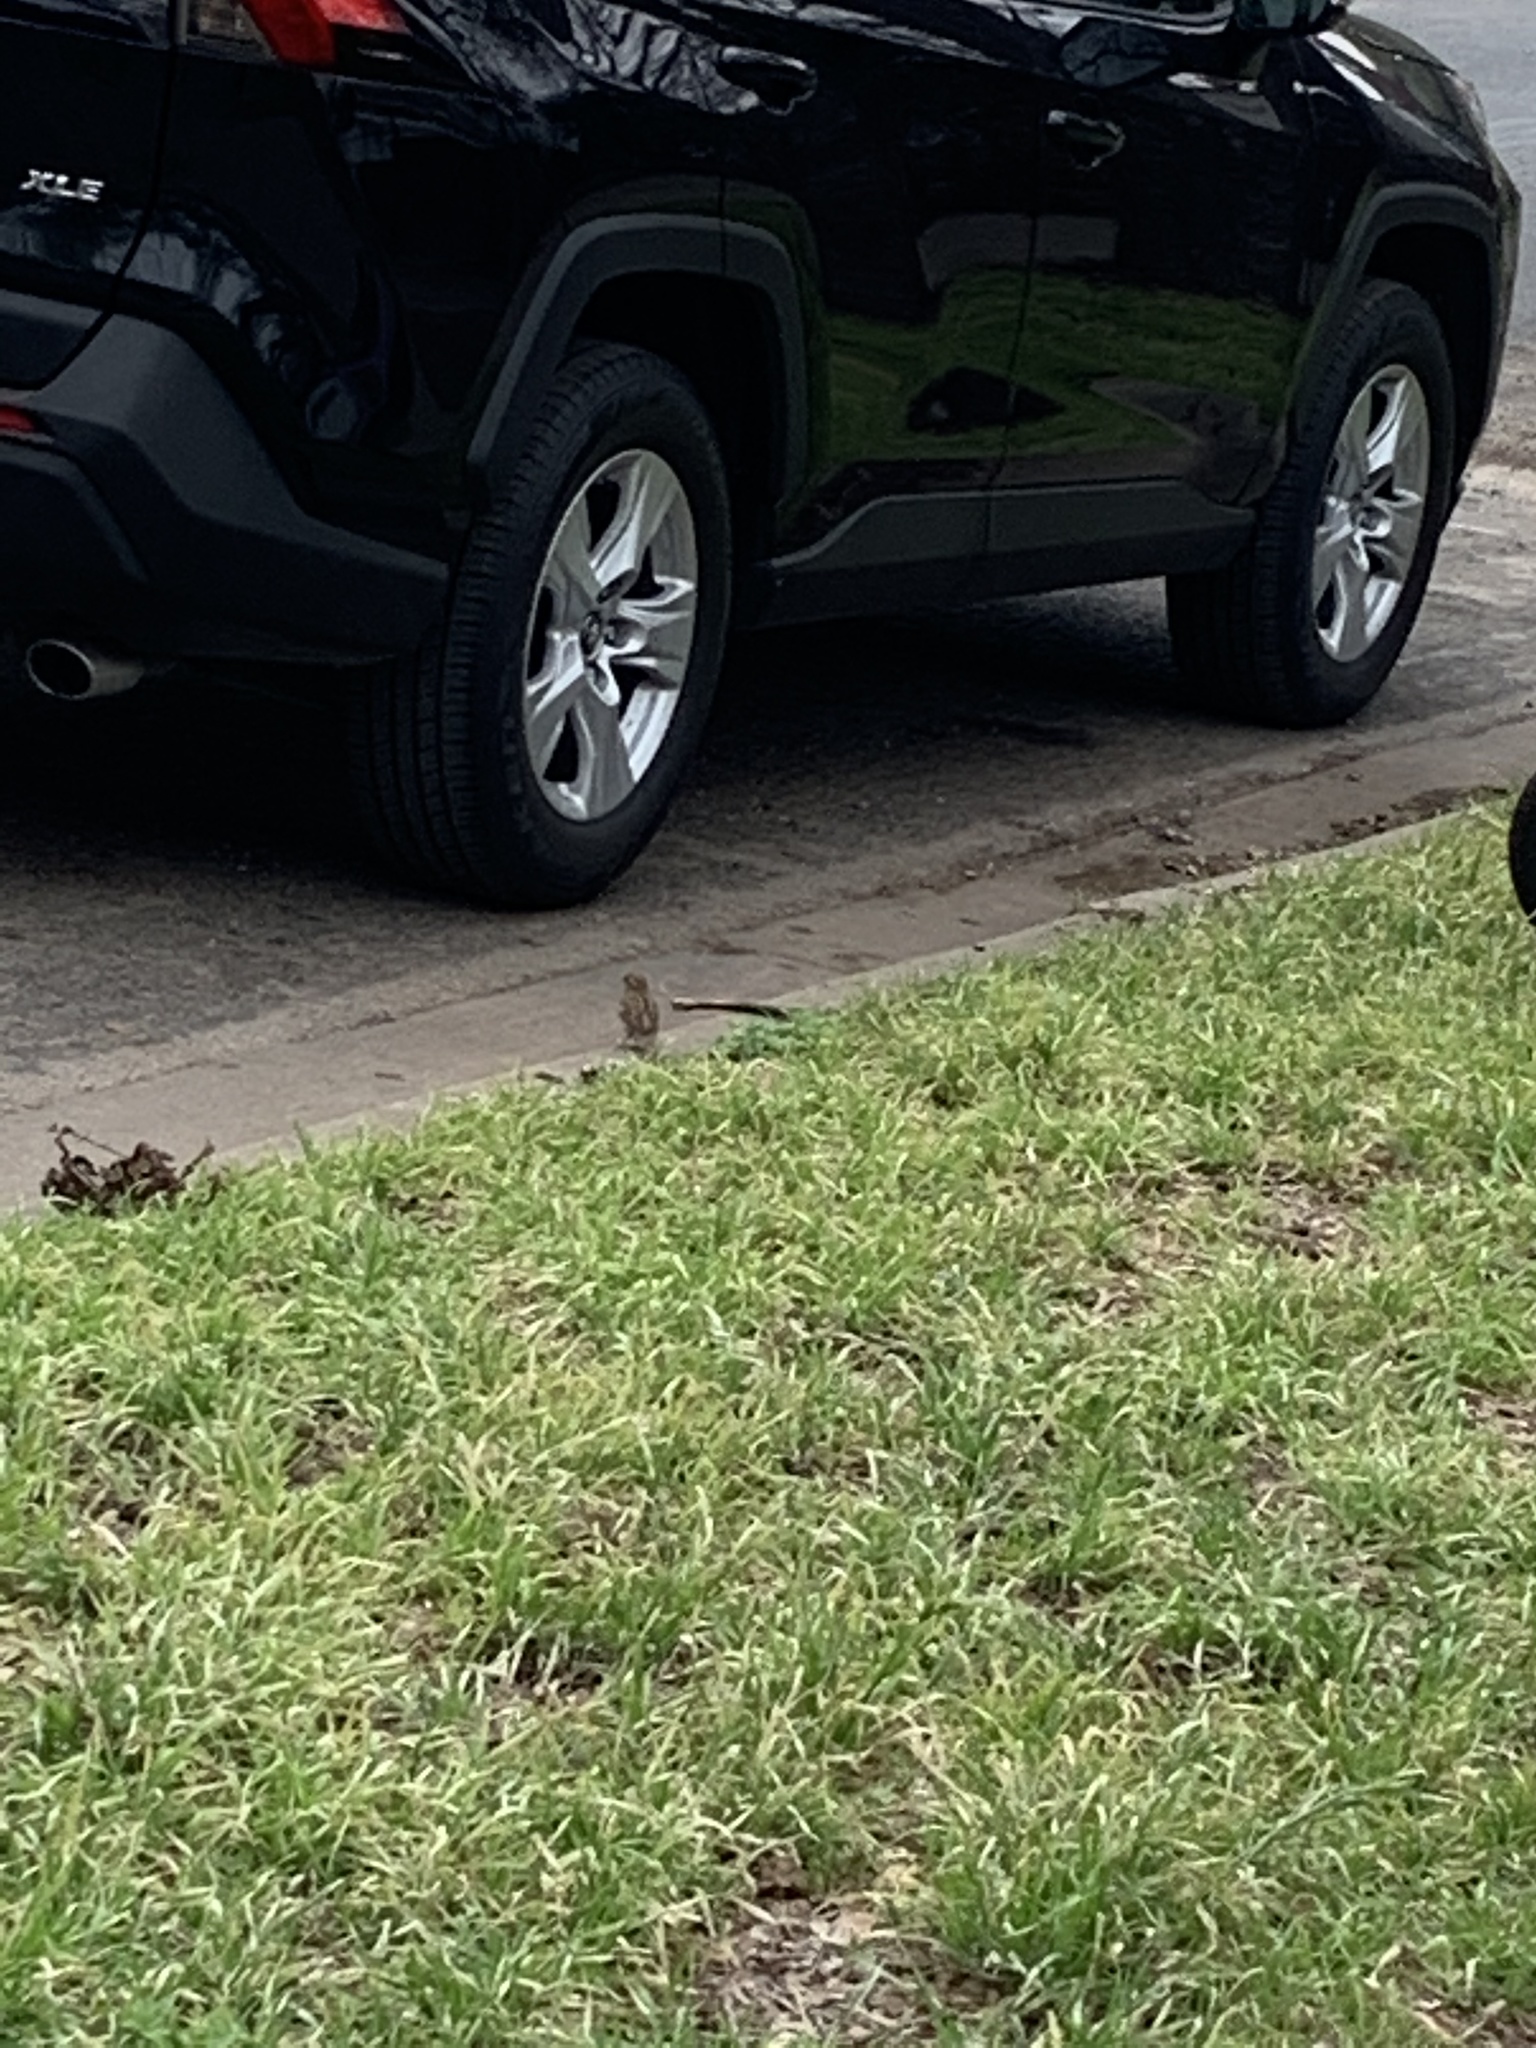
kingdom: Animalia
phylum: Chordata
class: Aves
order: Passeriformes
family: Passeridae
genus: Passer
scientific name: Passer domesticus
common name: House sparrow
